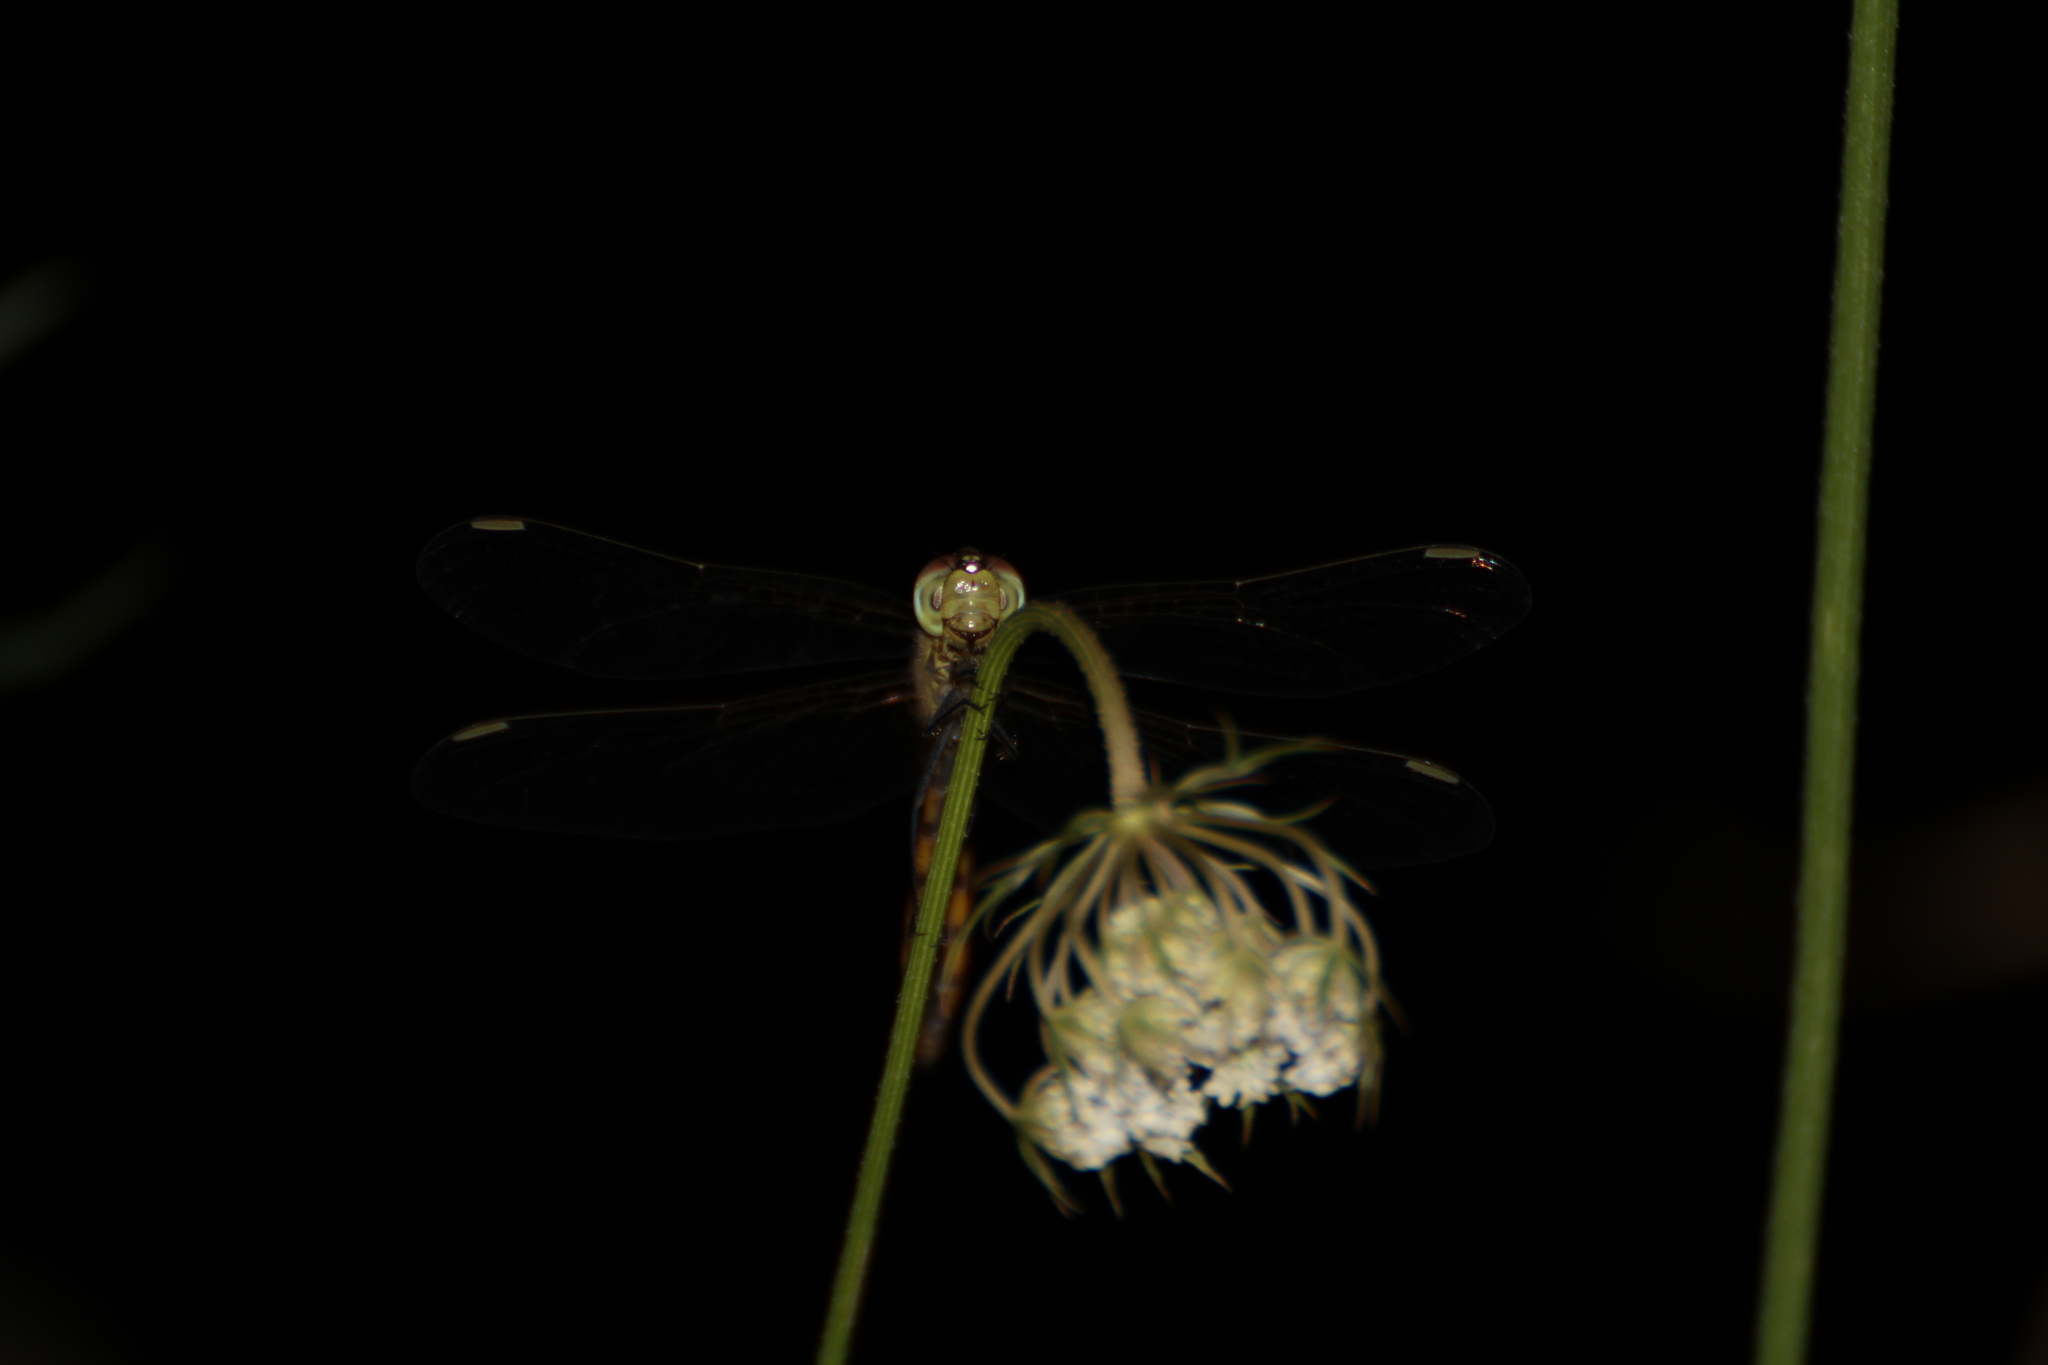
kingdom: Animalia
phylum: Arthropoda
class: Insecta
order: Odonata
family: Libellulidae
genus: Sympetrum
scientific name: Sympetrum depressiusculum
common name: Spotted darter
